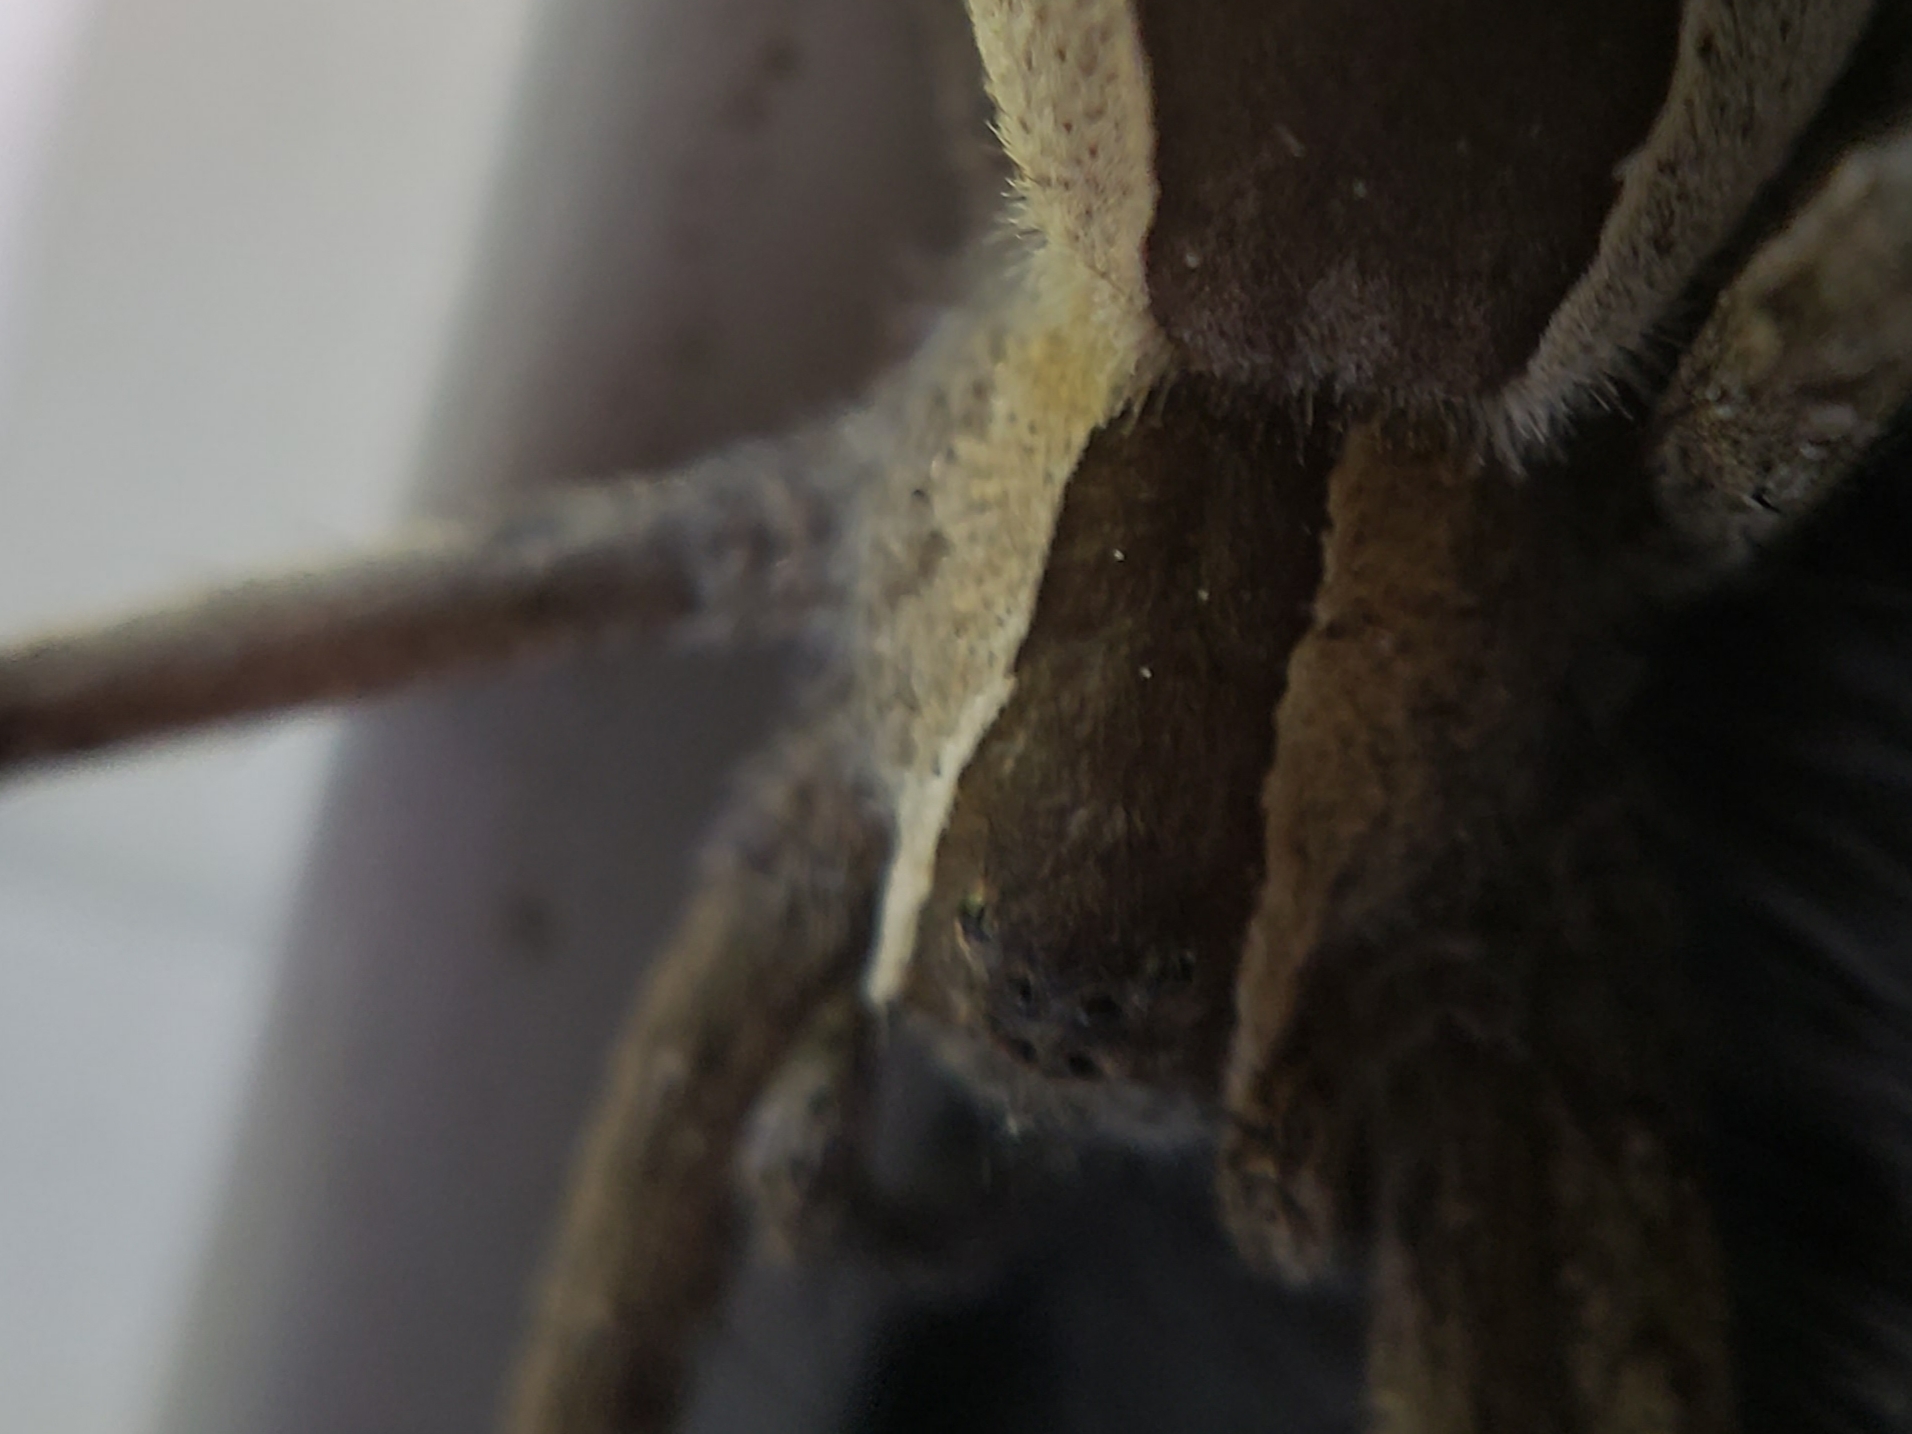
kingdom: Animalia
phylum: Arthropoda
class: Arachnida
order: Araneae
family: Pisauridae
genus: Pisaurina
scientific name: Pisaurina mira
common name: American nursery web spider
